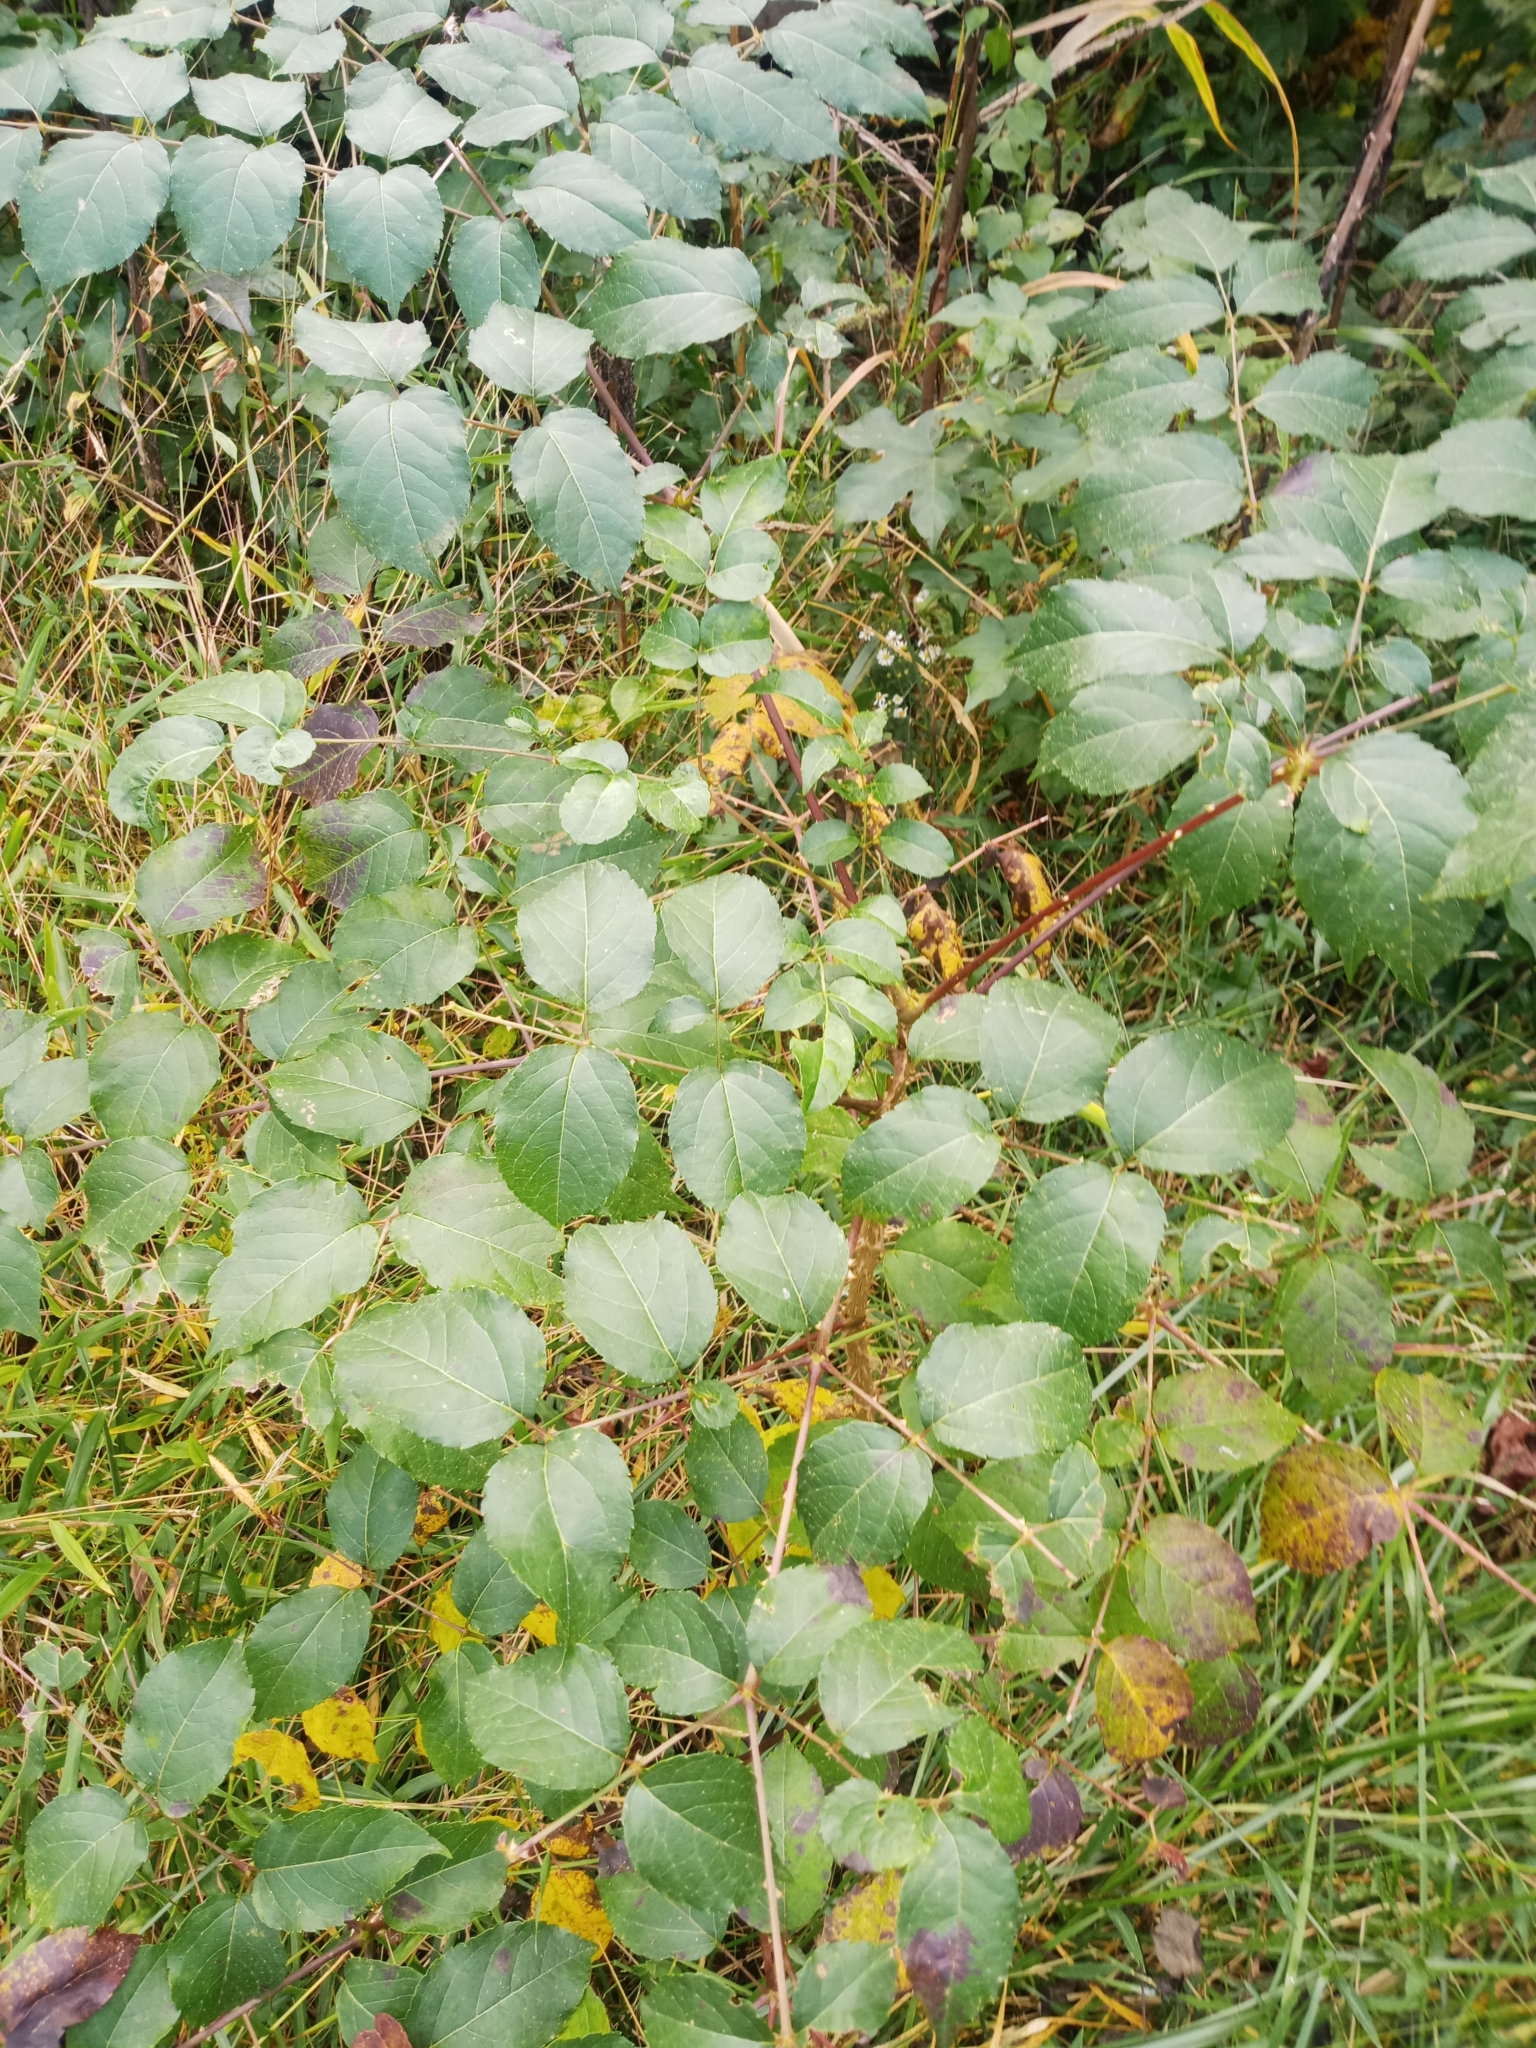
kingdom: Plantae
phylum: Tracheophyta
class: Magnoliopsida
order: Apiales
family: Araliaceae
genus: Aralia
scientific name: Aralia spinosa
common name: Hercules'-club
